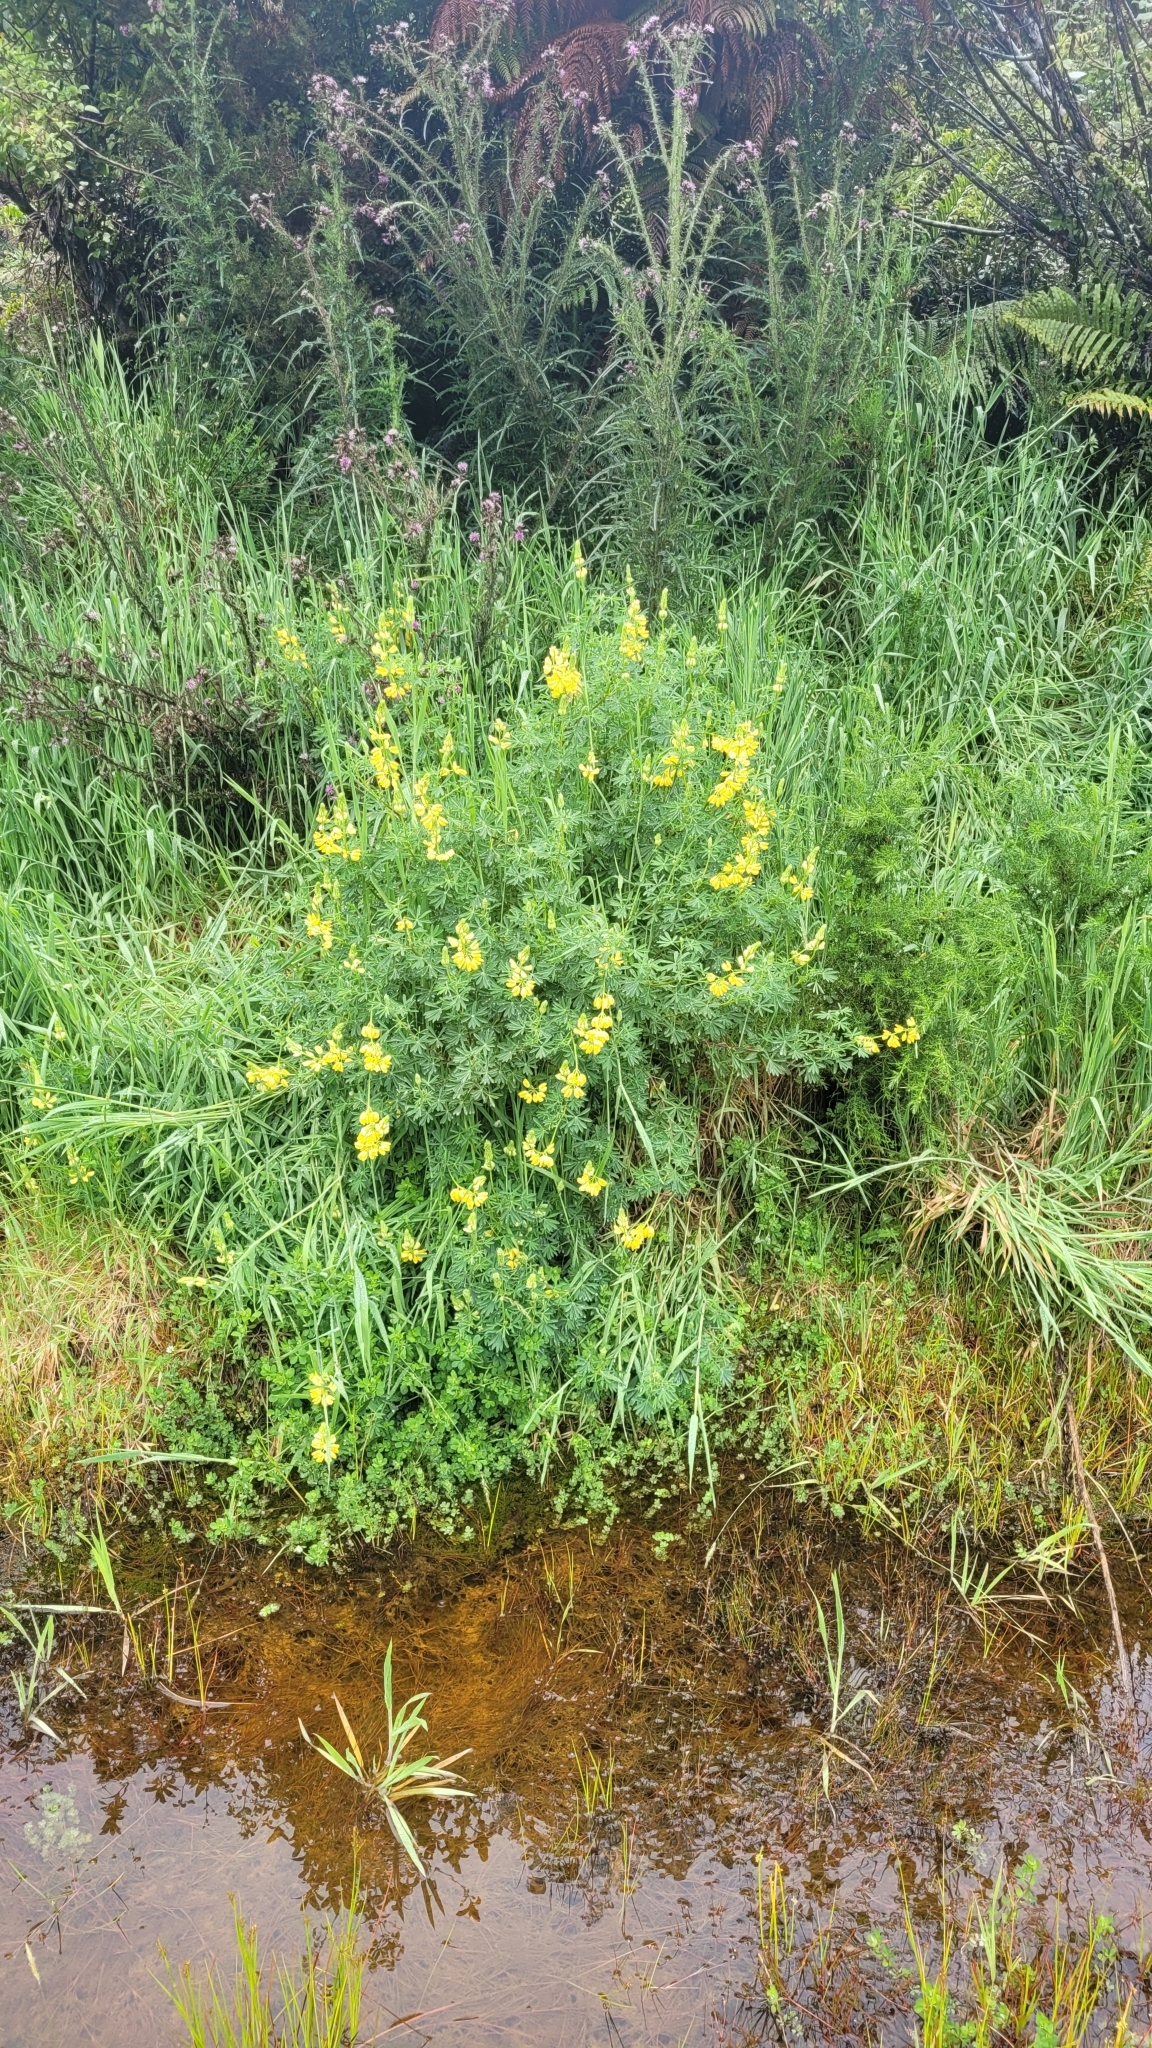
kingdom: Plantae
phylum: Tracheophyta
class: Magnoliopsida
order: Fabales
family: Fabaceae
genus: Lupinus
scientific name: Lupinus arboreus
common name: Yellow bush lupine
